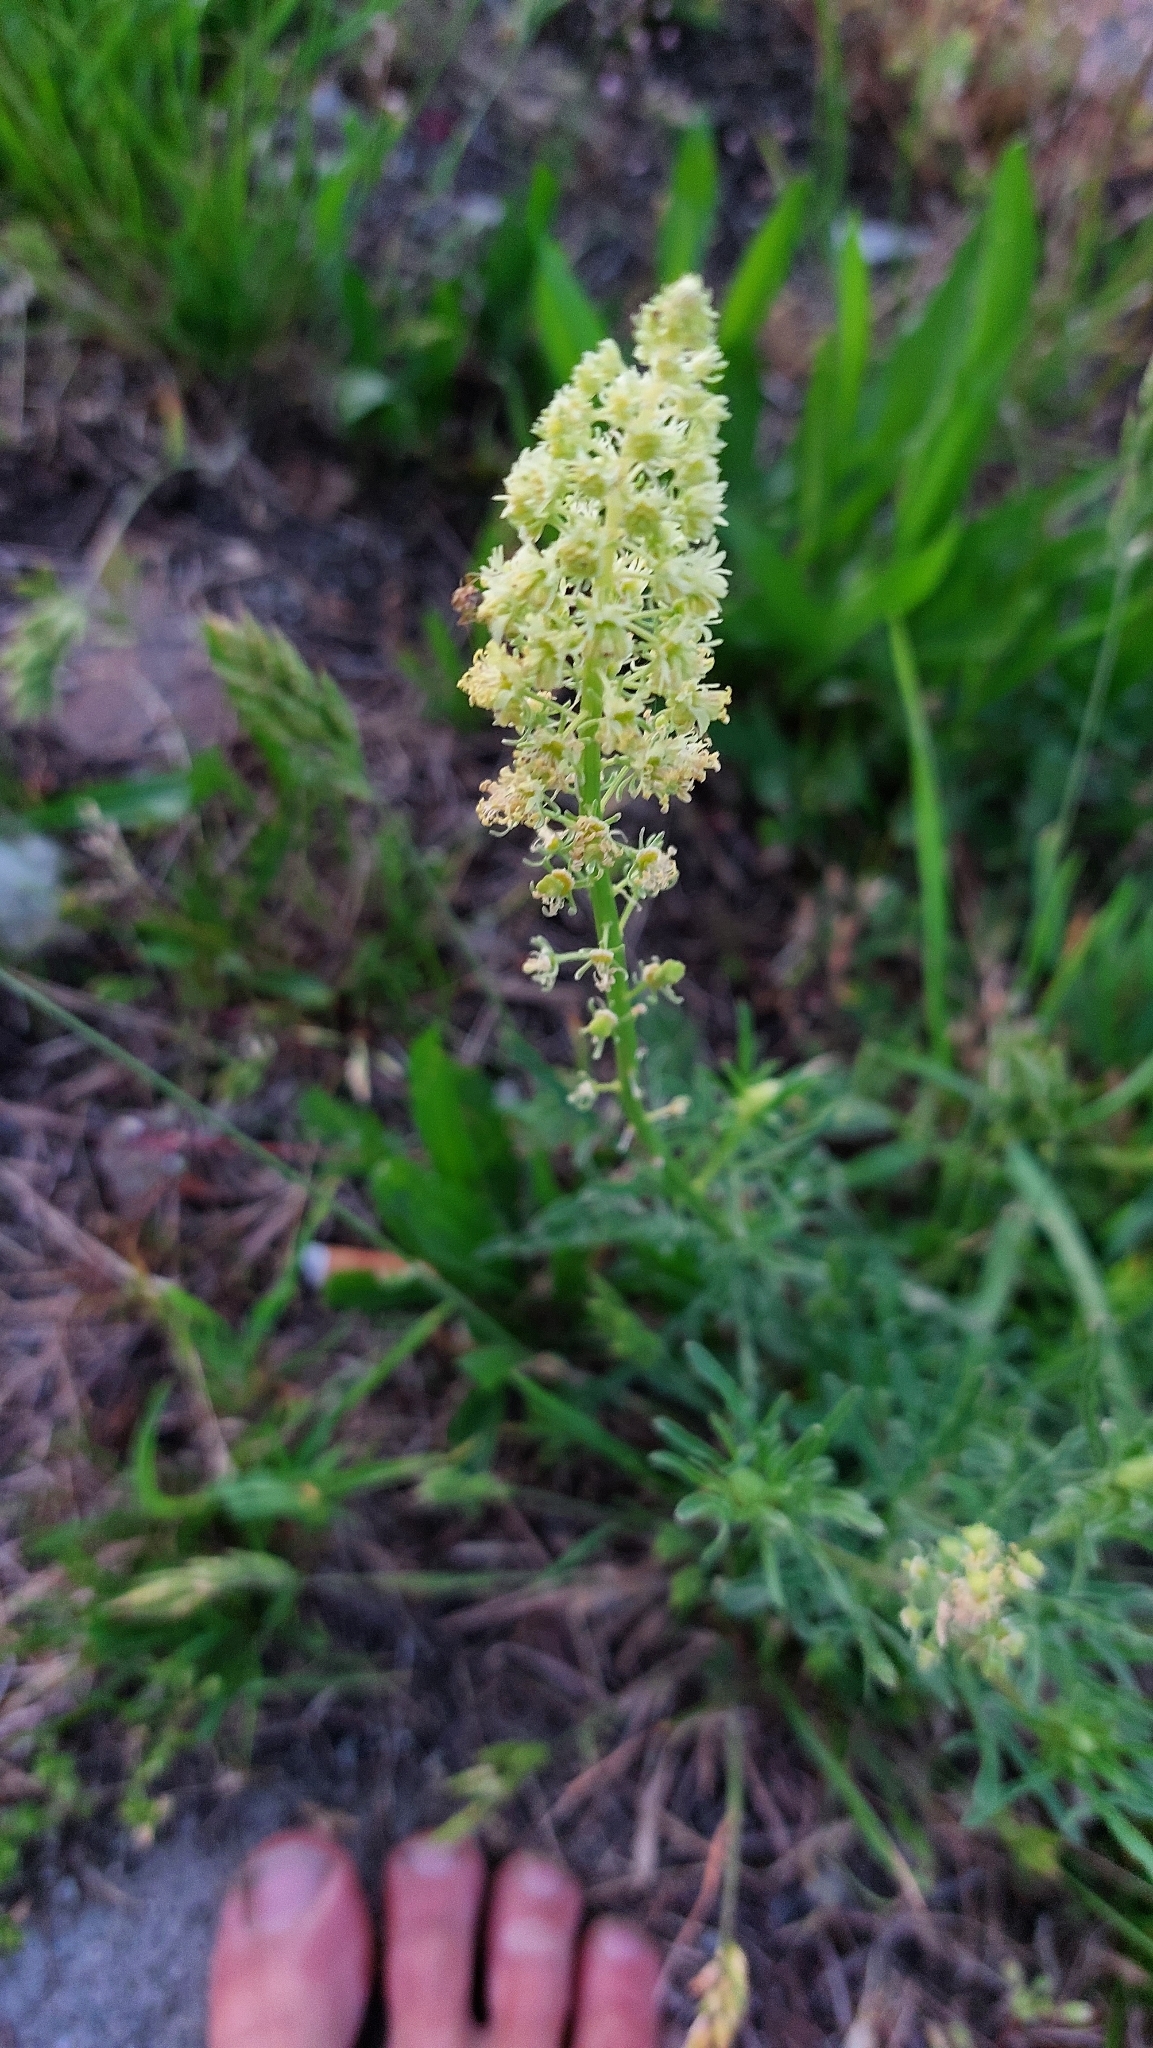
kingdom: Plantae
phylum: Tracheophyta
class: Magnoliopsida
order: Brassicales
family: Resedaceae
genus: Reseda
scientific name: Reseda lutea
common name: Wild mignonette
